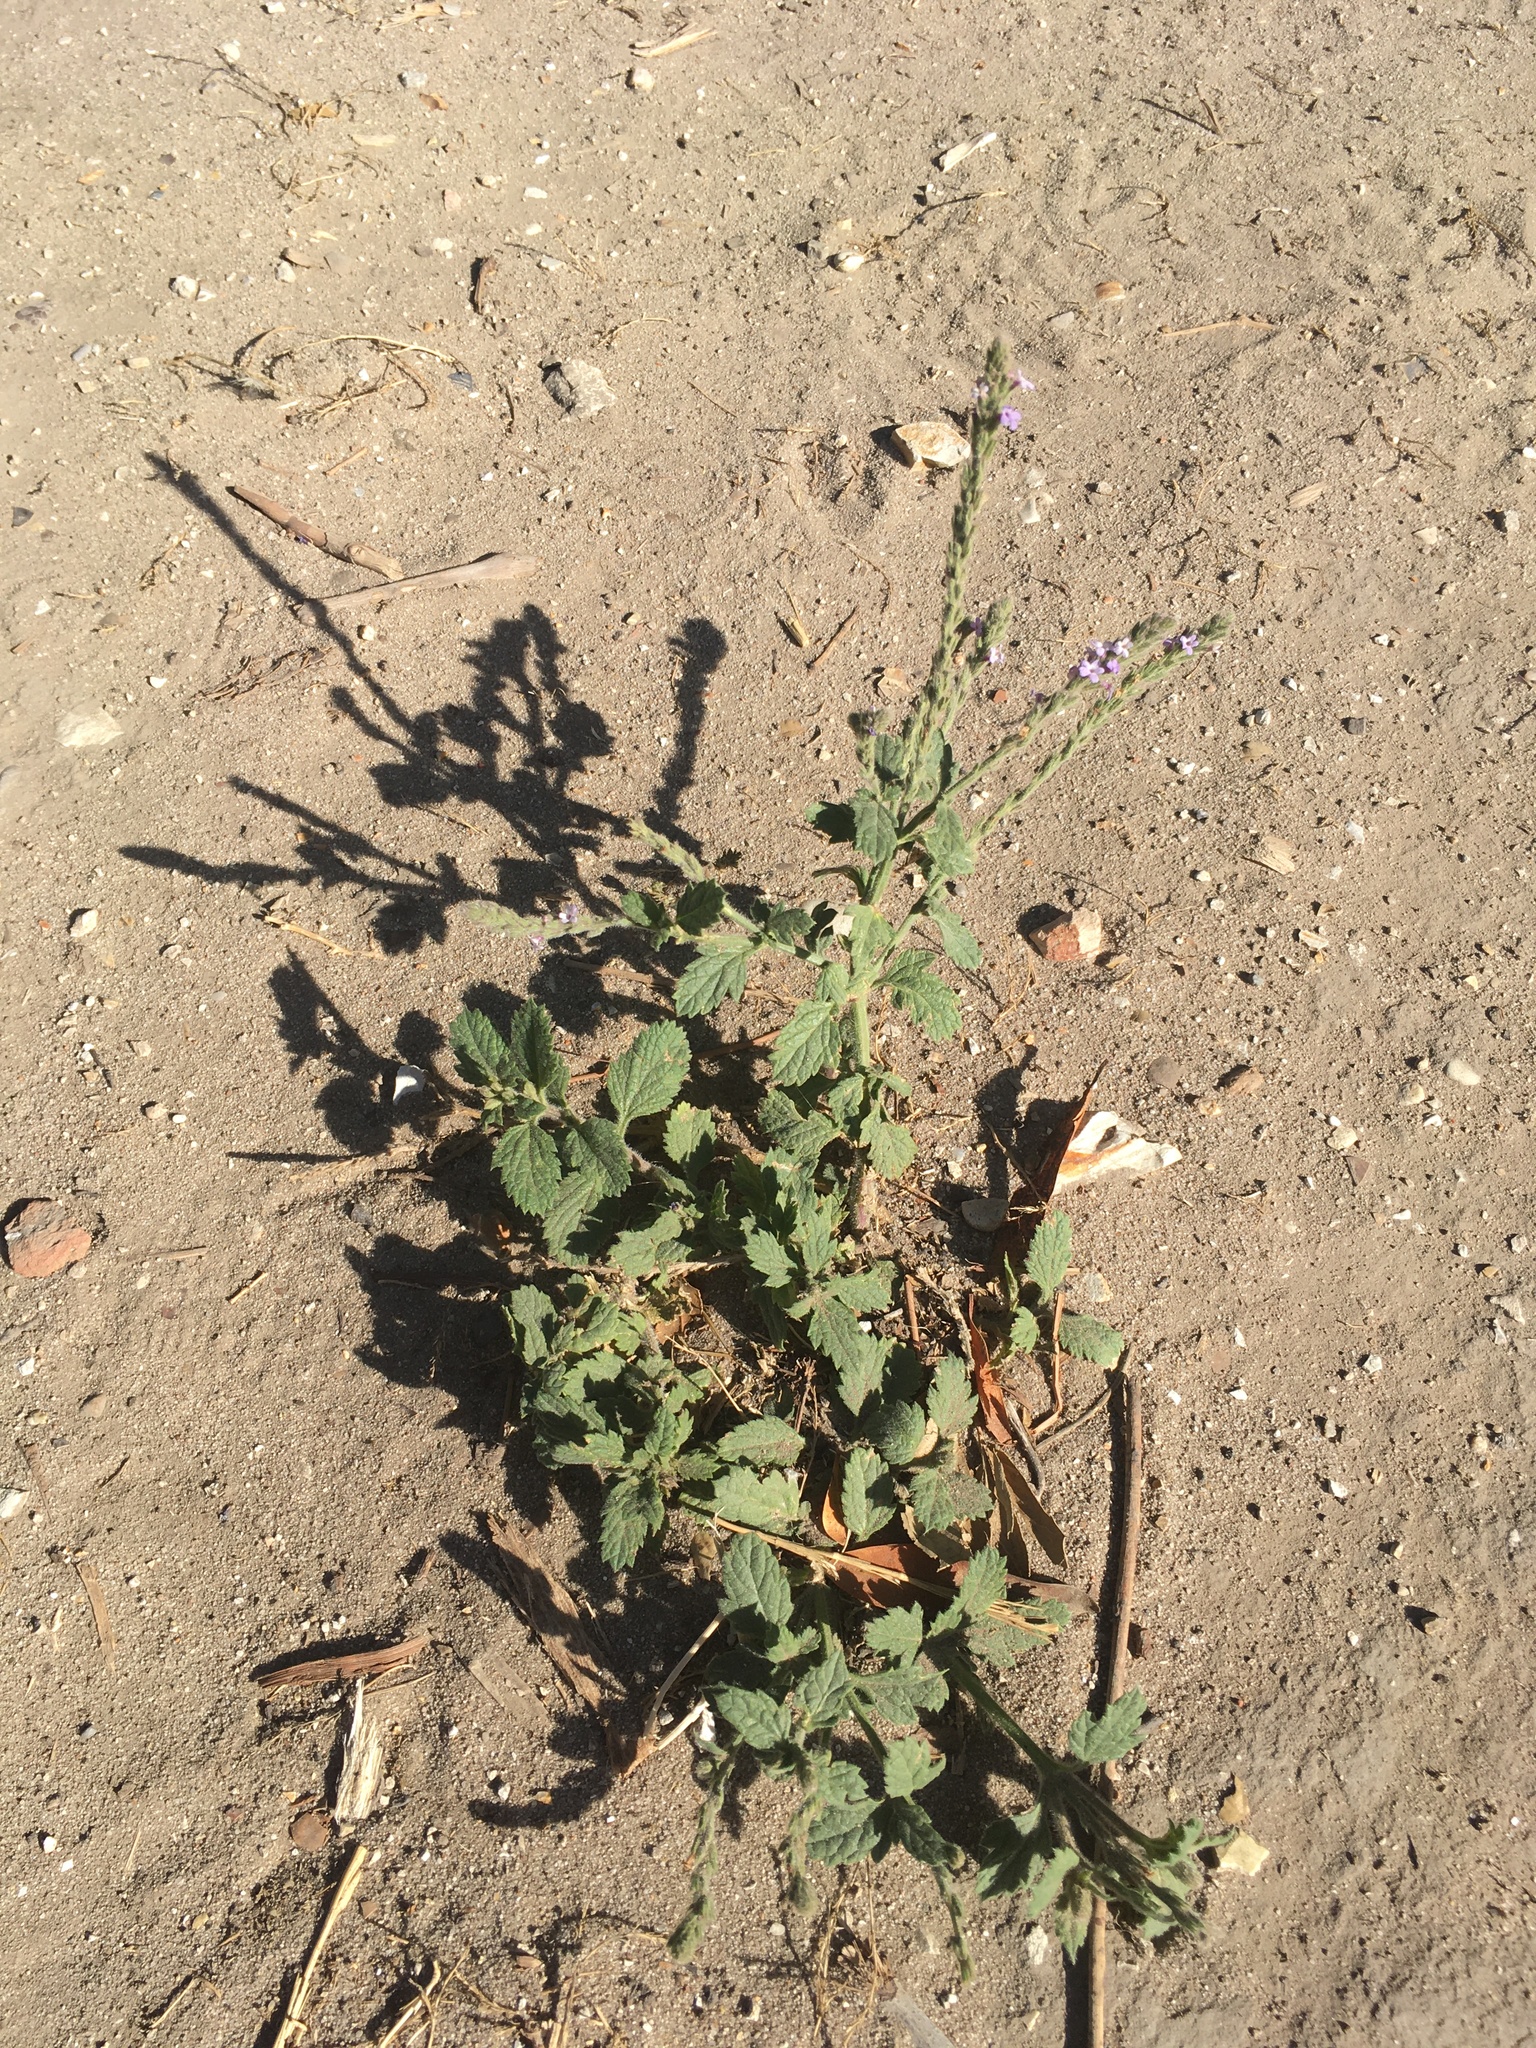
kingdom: Plantae
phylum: Tracheophyta
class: Magnoliopsida
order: Lamiales
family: Verbenaceae
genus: Verbena
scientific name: Verbena lasiostachys
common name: Vervain
